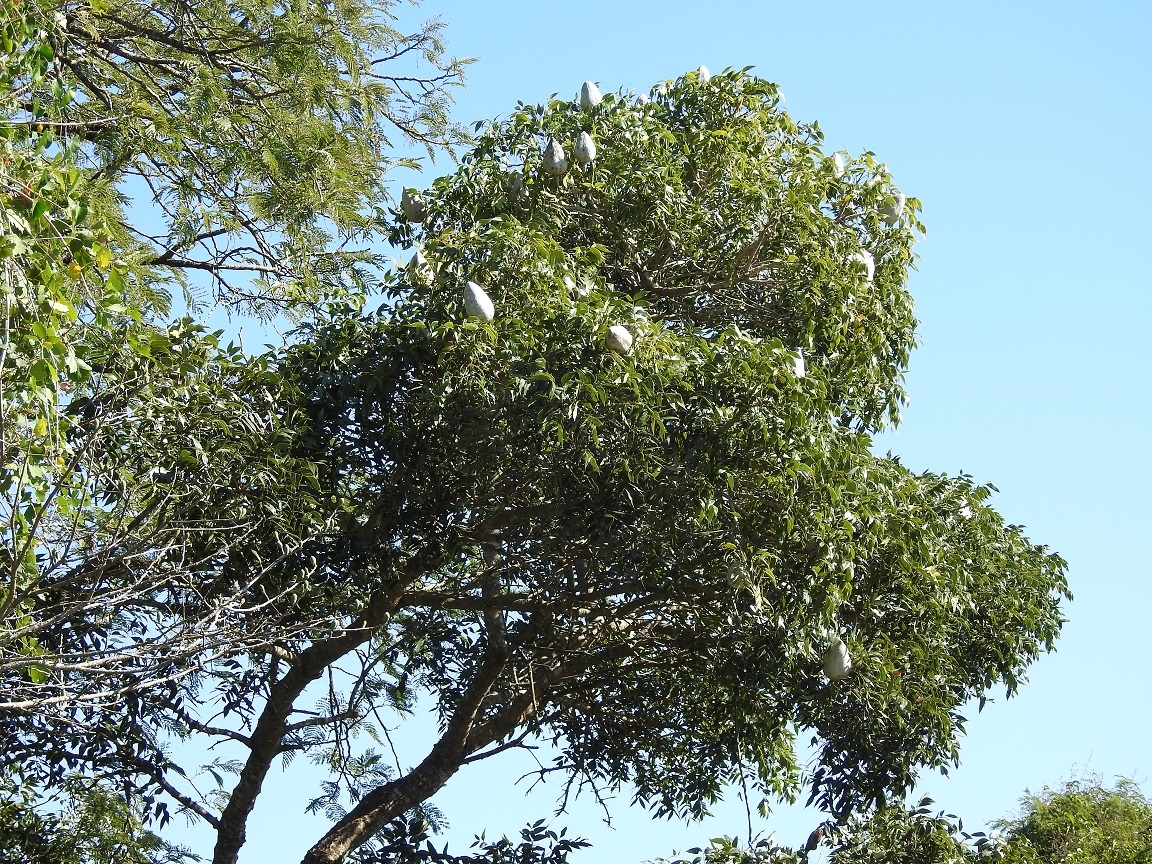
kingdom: Plantae
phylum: Tracheophyta
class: Magnoliopsida
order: Sapindales
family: Meliaceae
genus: Swietenia
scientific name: Swietenia humilis
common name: Pacific coast mahogany
